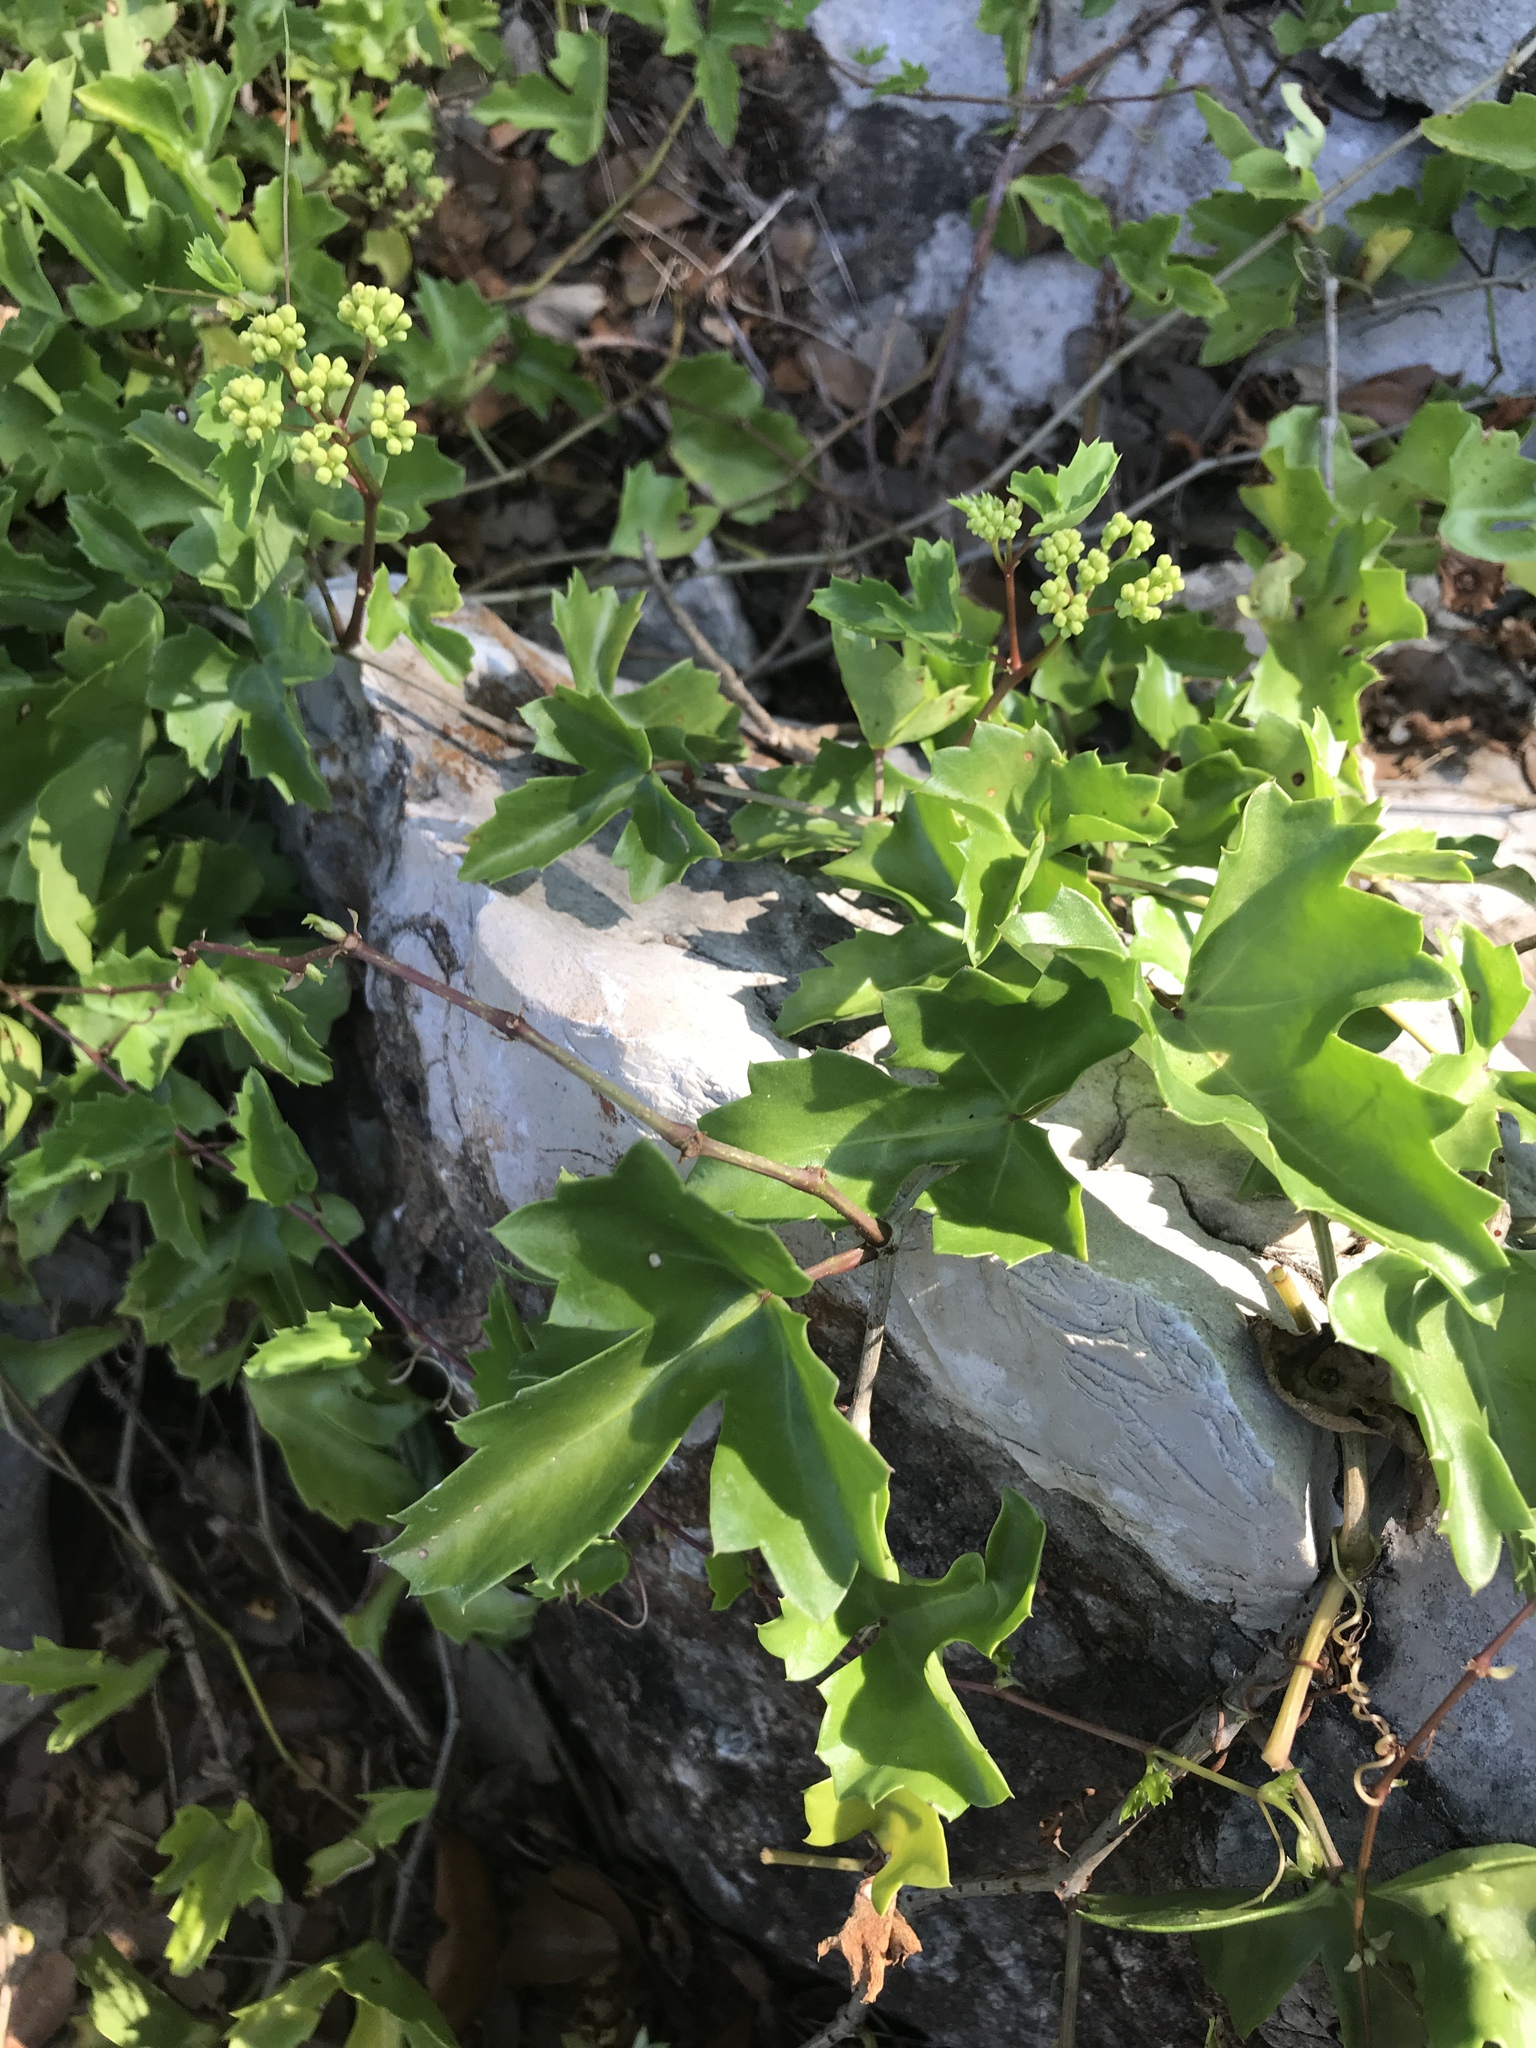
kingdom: Plantae
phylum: Tracheophyta
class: Magnoliopsida
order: Vitales
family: Vitaceae
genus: Cissus
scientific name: Cissus trifoliata
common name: Vine-sorrel
